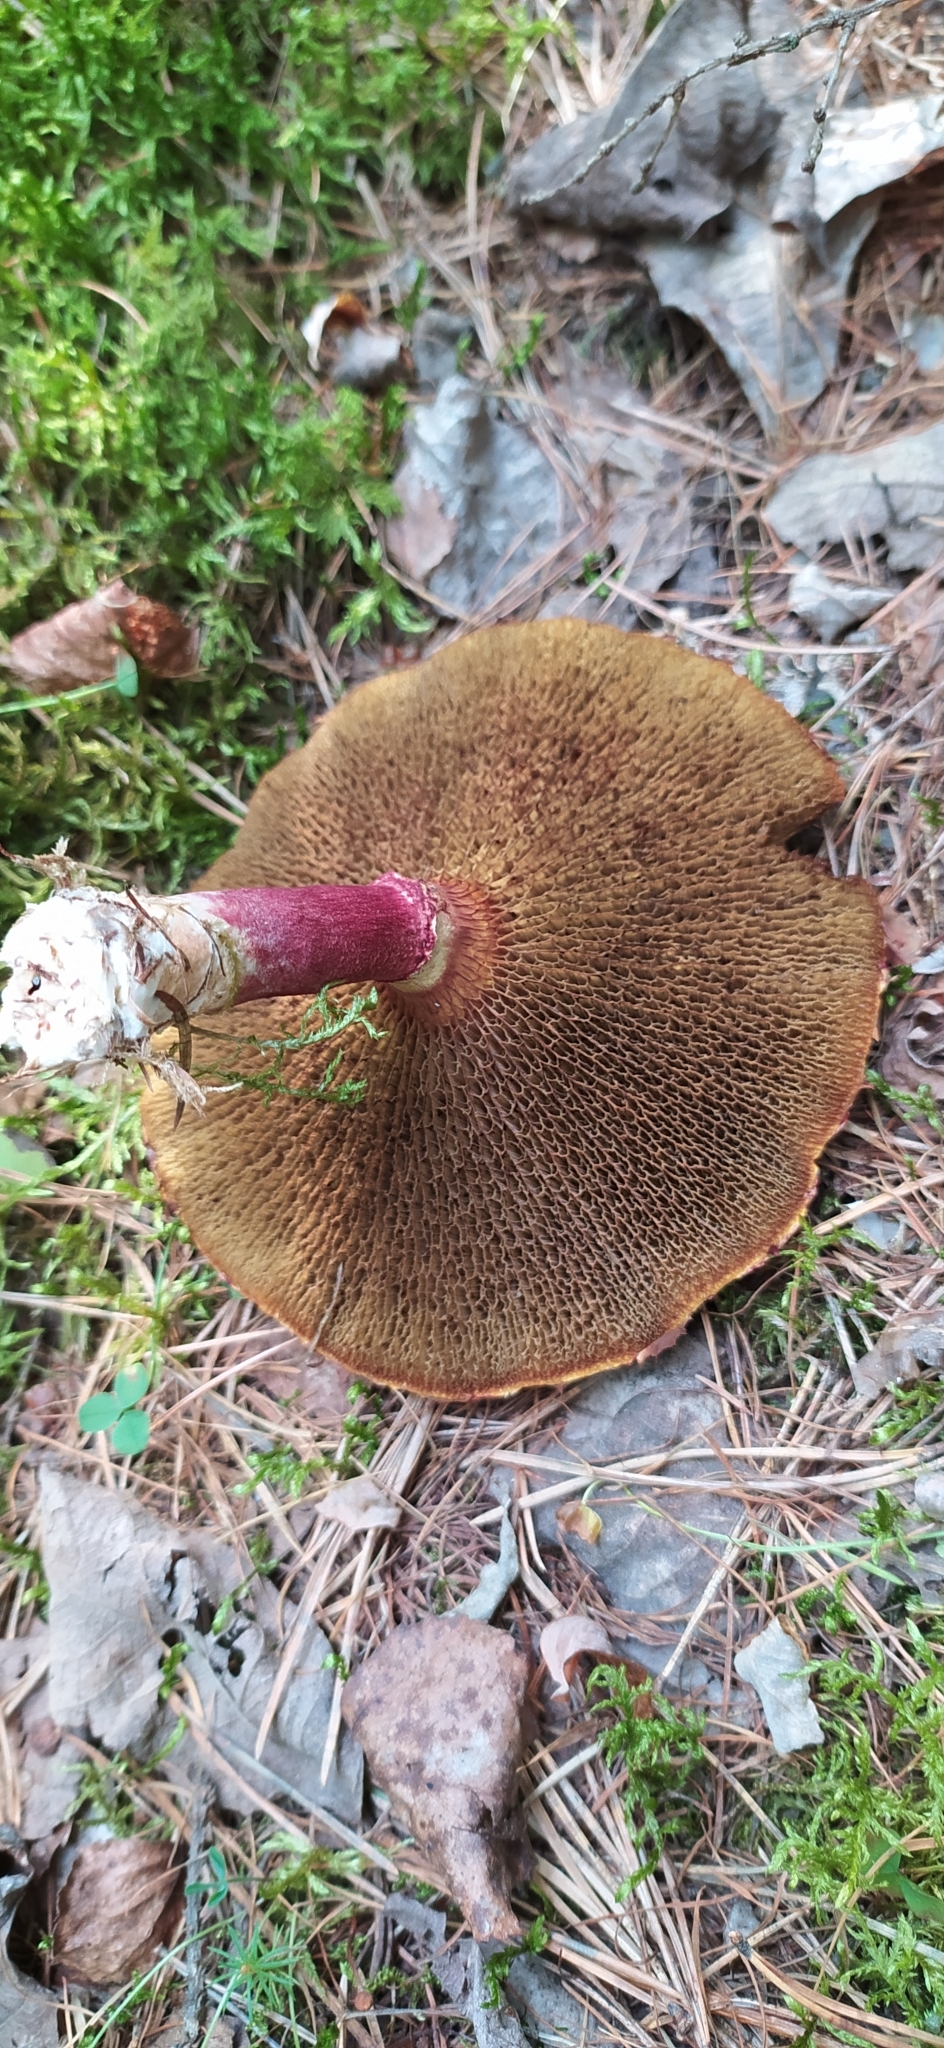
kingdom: Fungi
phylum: Basidiomycota
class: Agaricomycetes
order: Boletales
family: Suillaceae
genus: Boletinus
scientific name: Boletinus asiaticus
